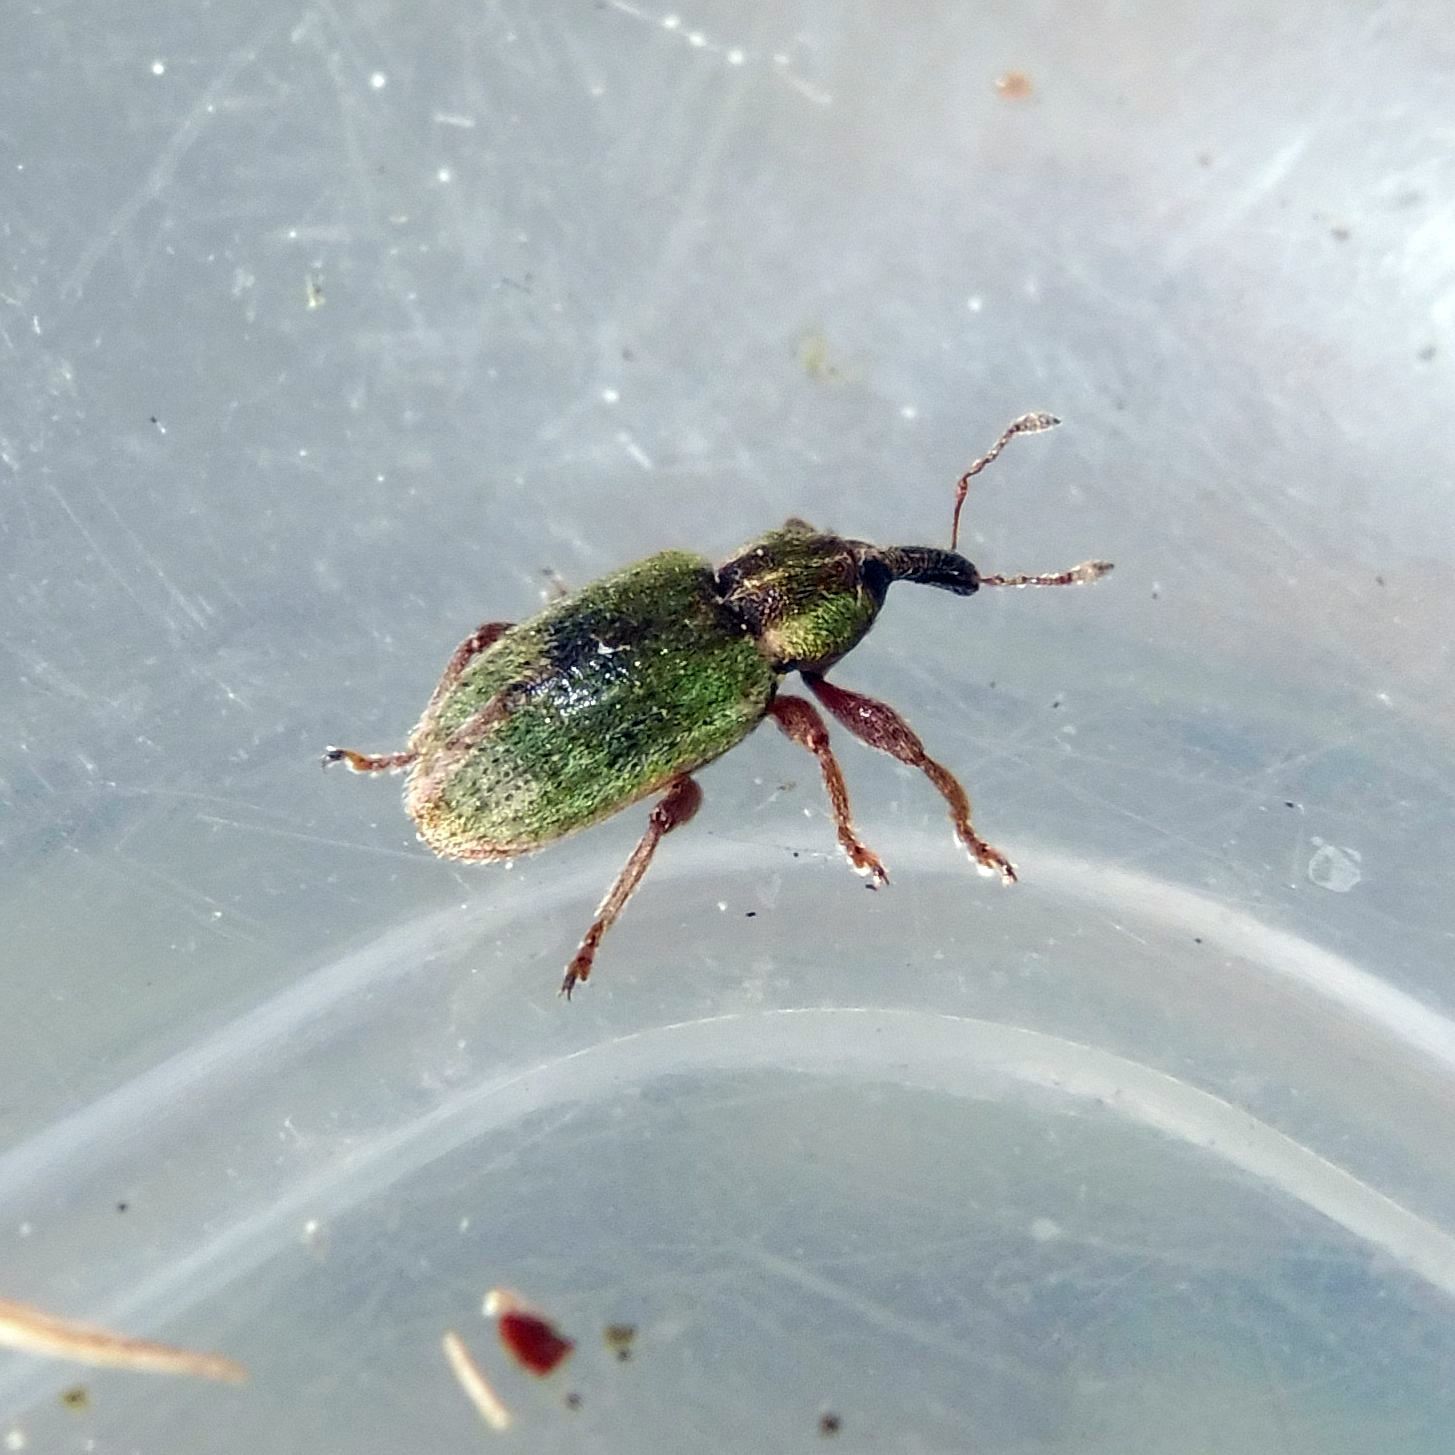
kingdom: Animalia
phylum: Arthropoda
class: Insecta
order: Coleoptera
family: Curculionidae
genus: Hypera
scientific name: Hypera nigrirostris
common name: Black-beaked green weevil
